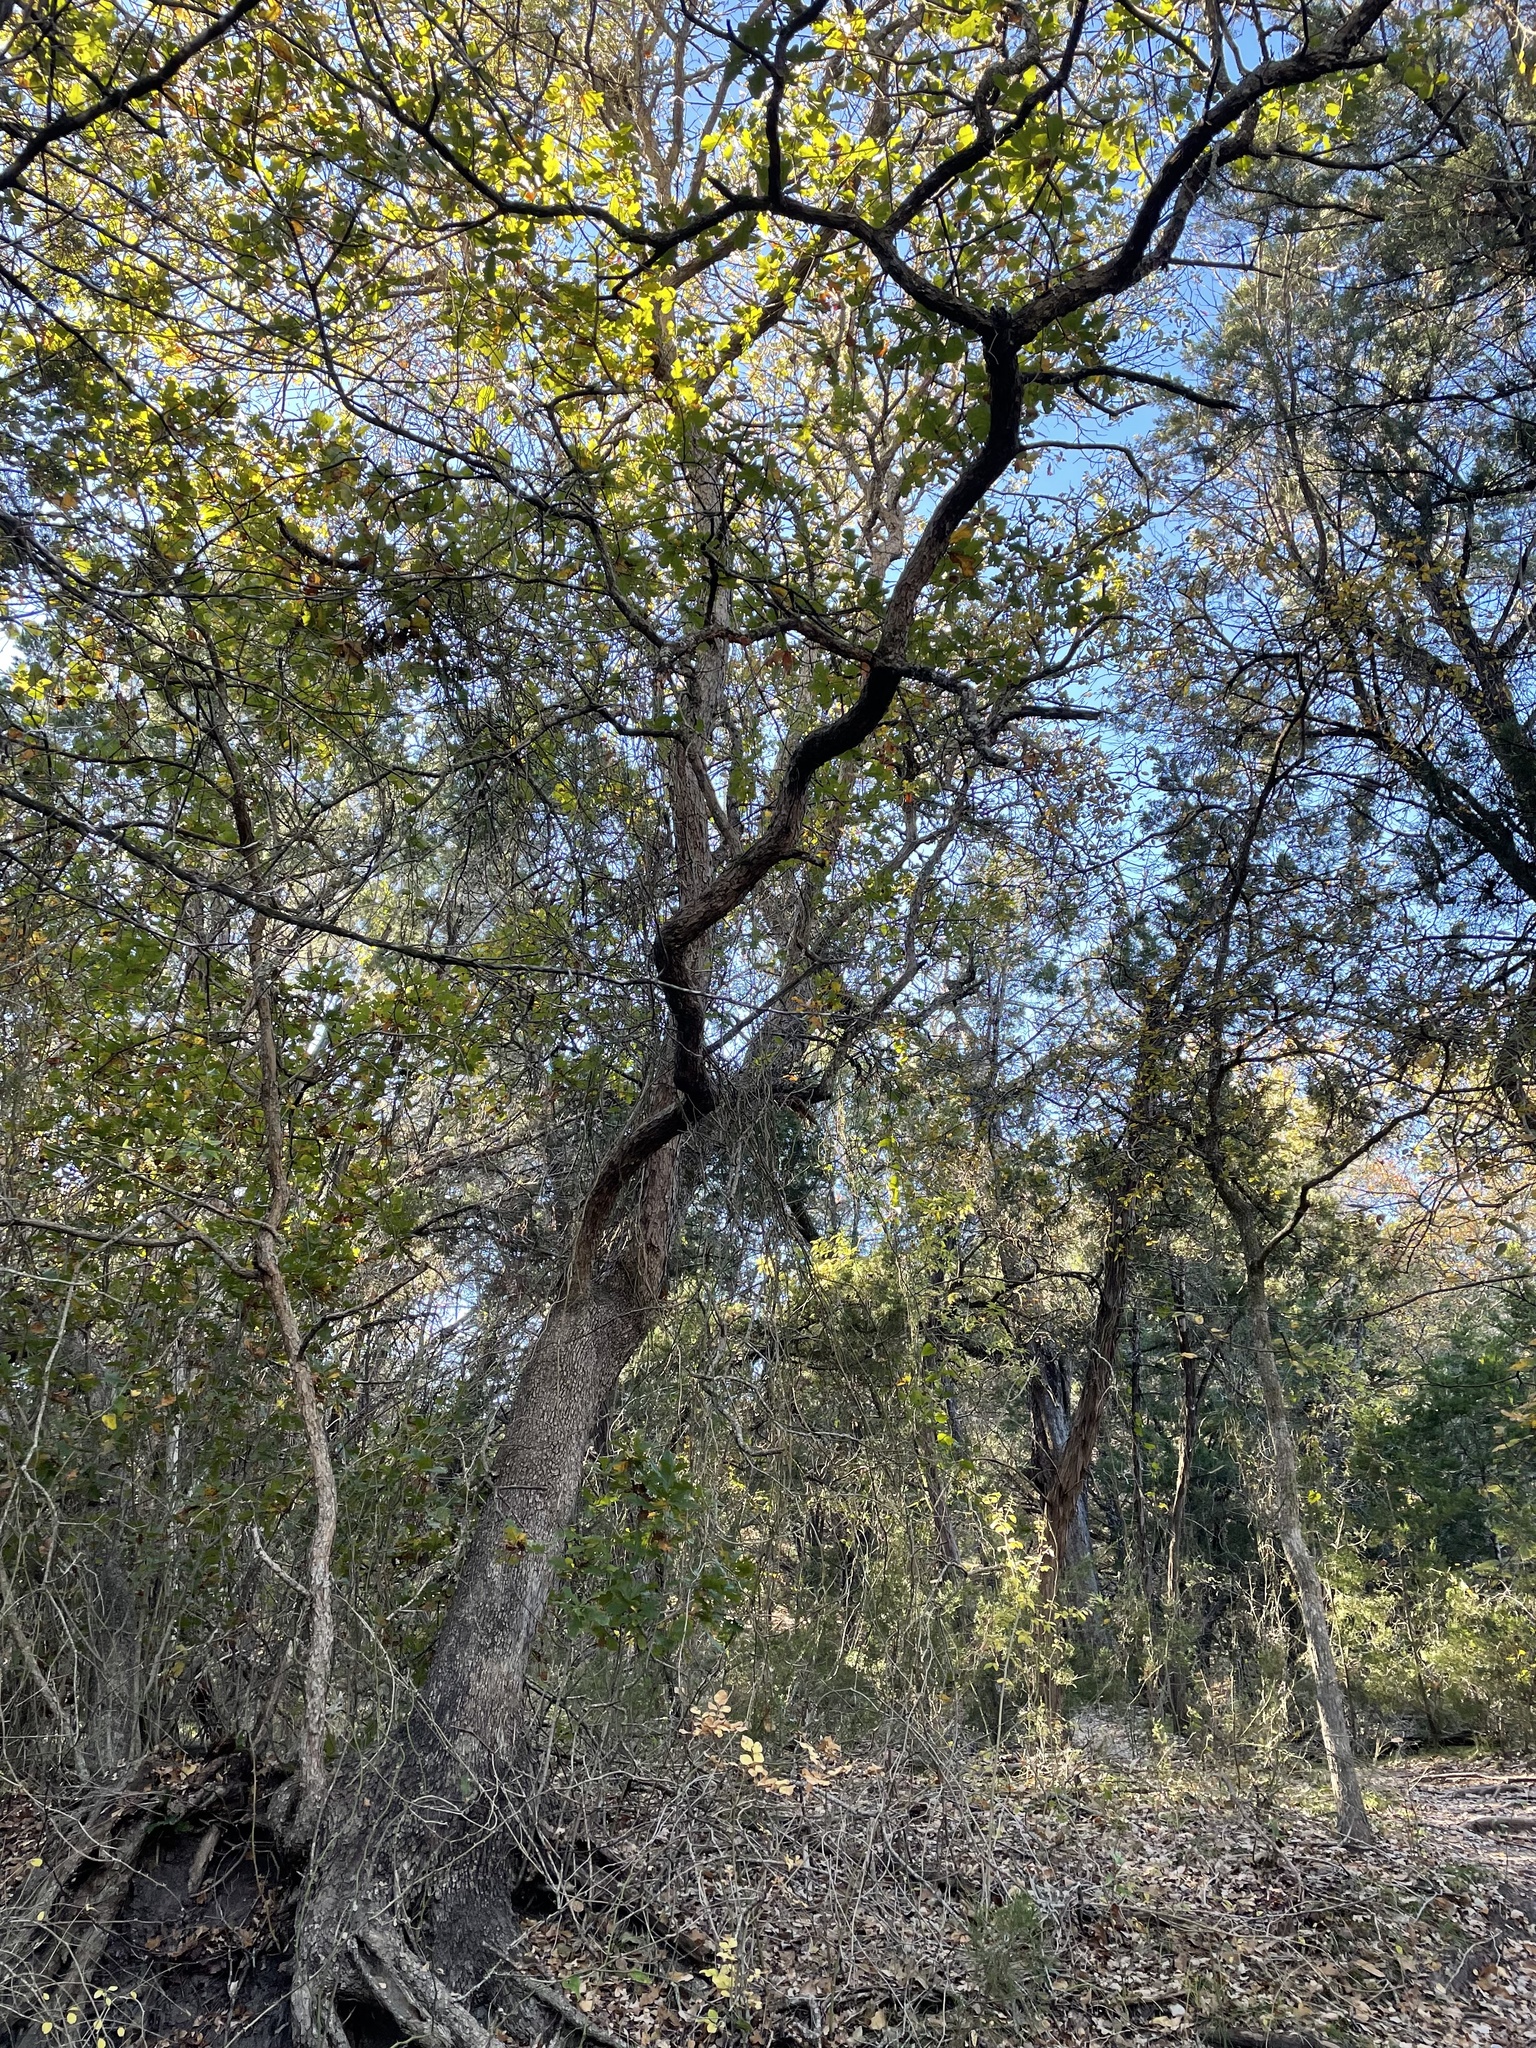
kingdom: Plantae
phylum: Tracheophyta
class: Magnoliopsida
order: Fagales
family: Fagaceae
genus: Quercus
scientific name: Quercus sinuata
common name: Durand oak
